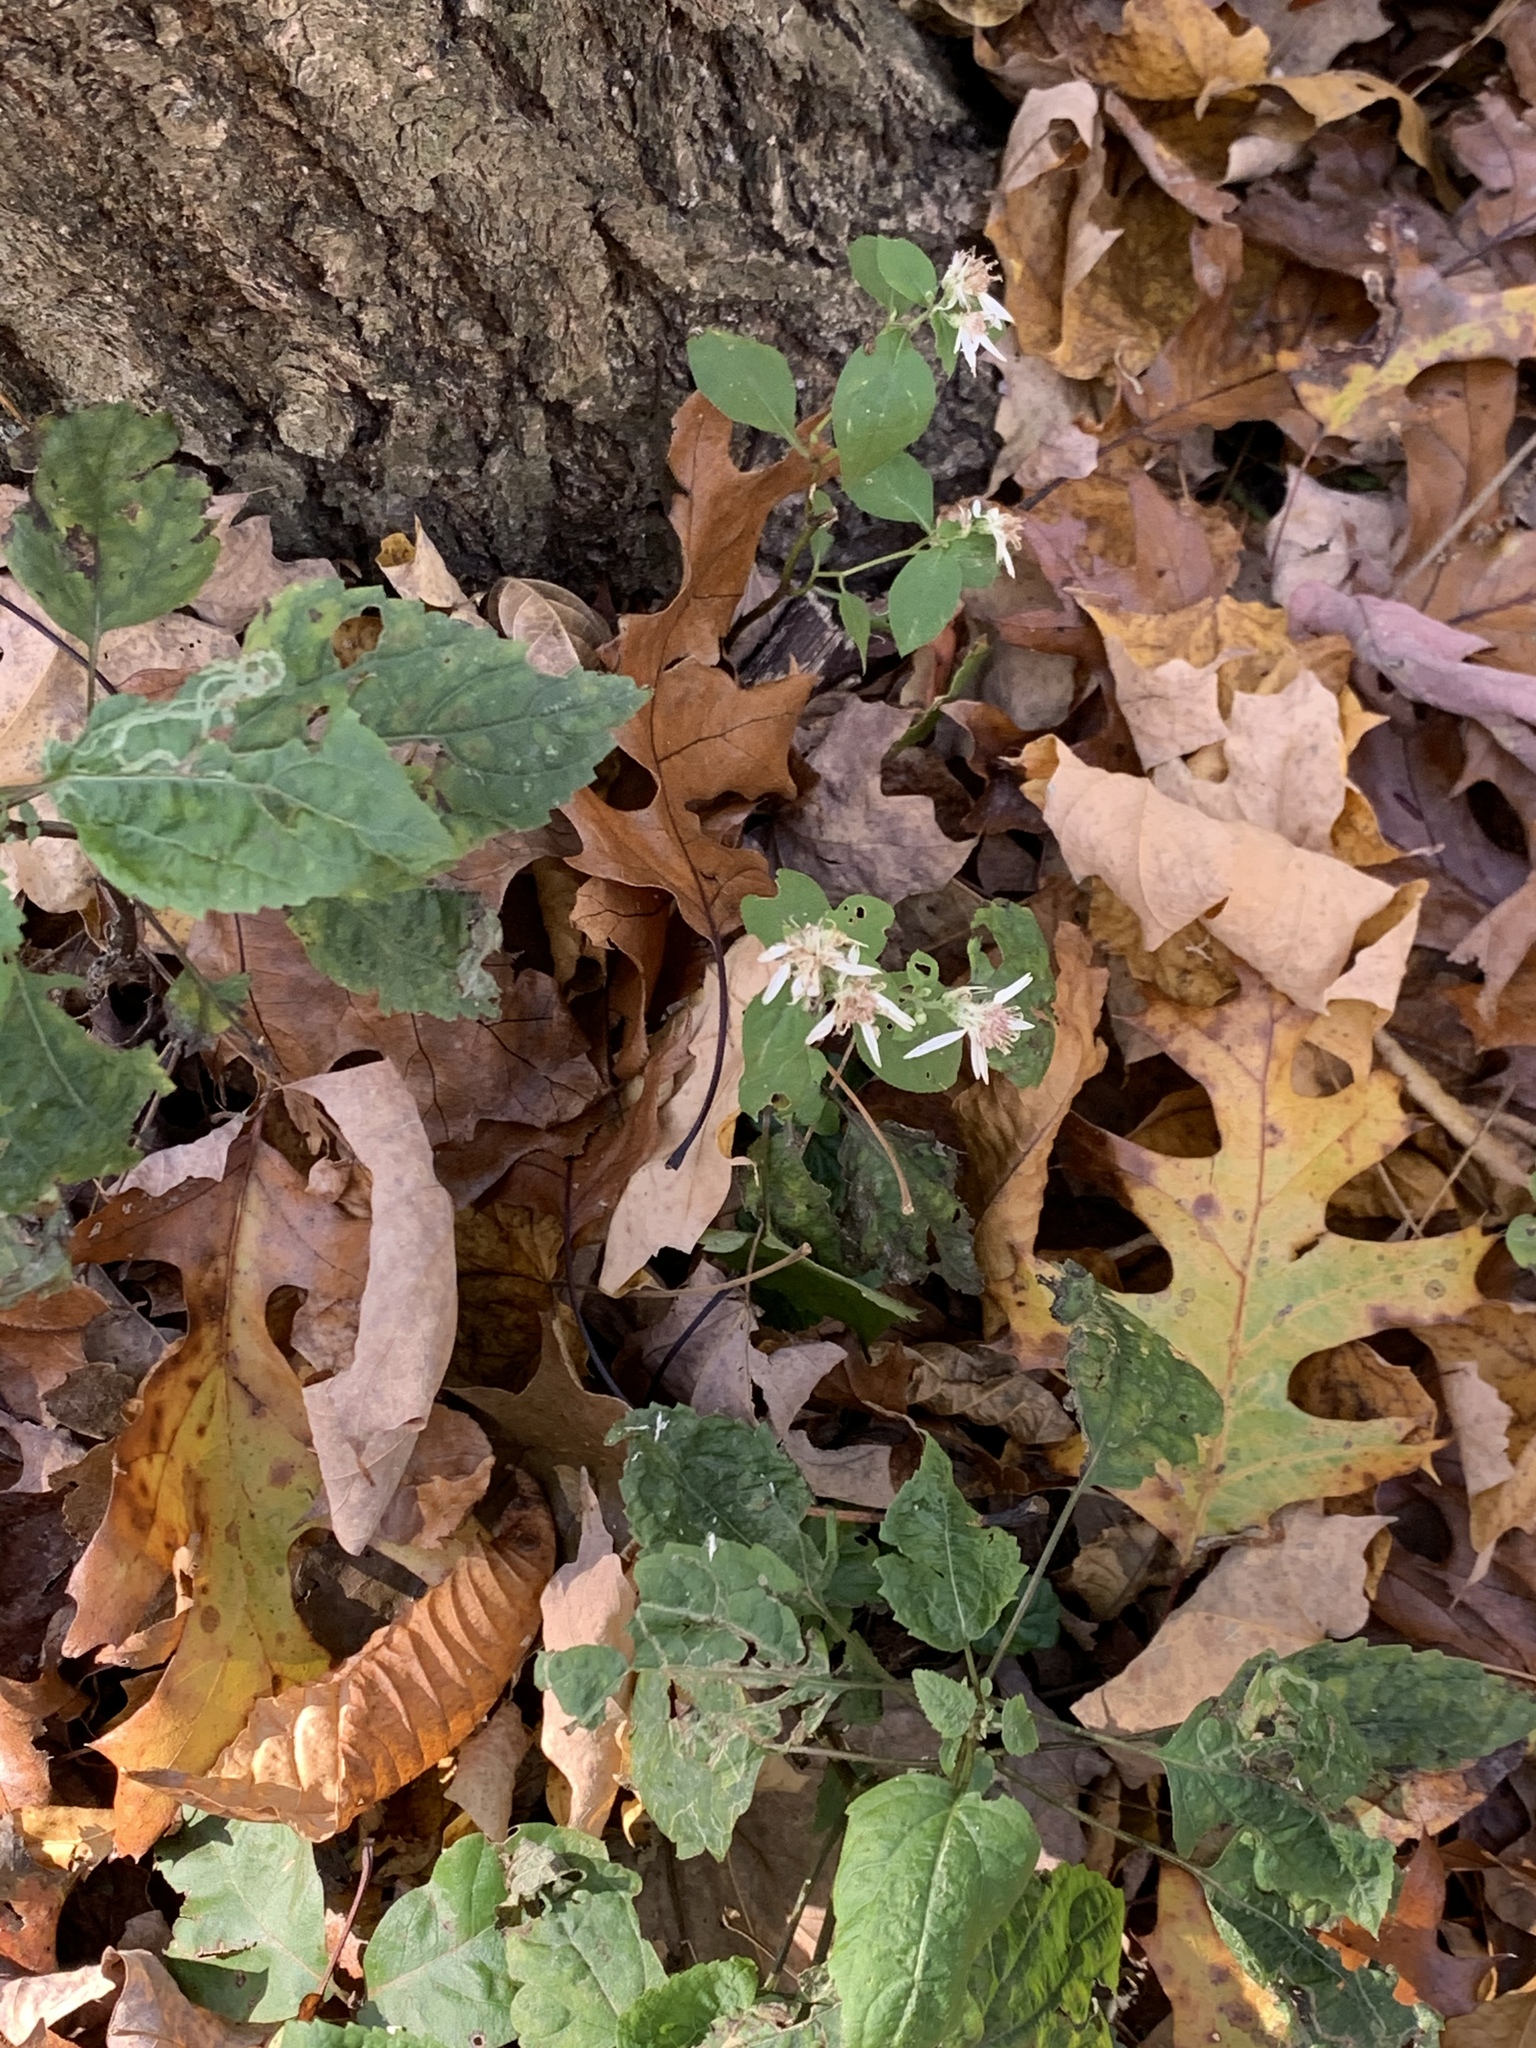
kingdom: Plantae
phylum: Tracheophyta
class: Magnoliopsida
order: Asterales
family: Asteraceae
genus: Eurybia
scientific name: Eurybia divaricata
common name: White wood aster
